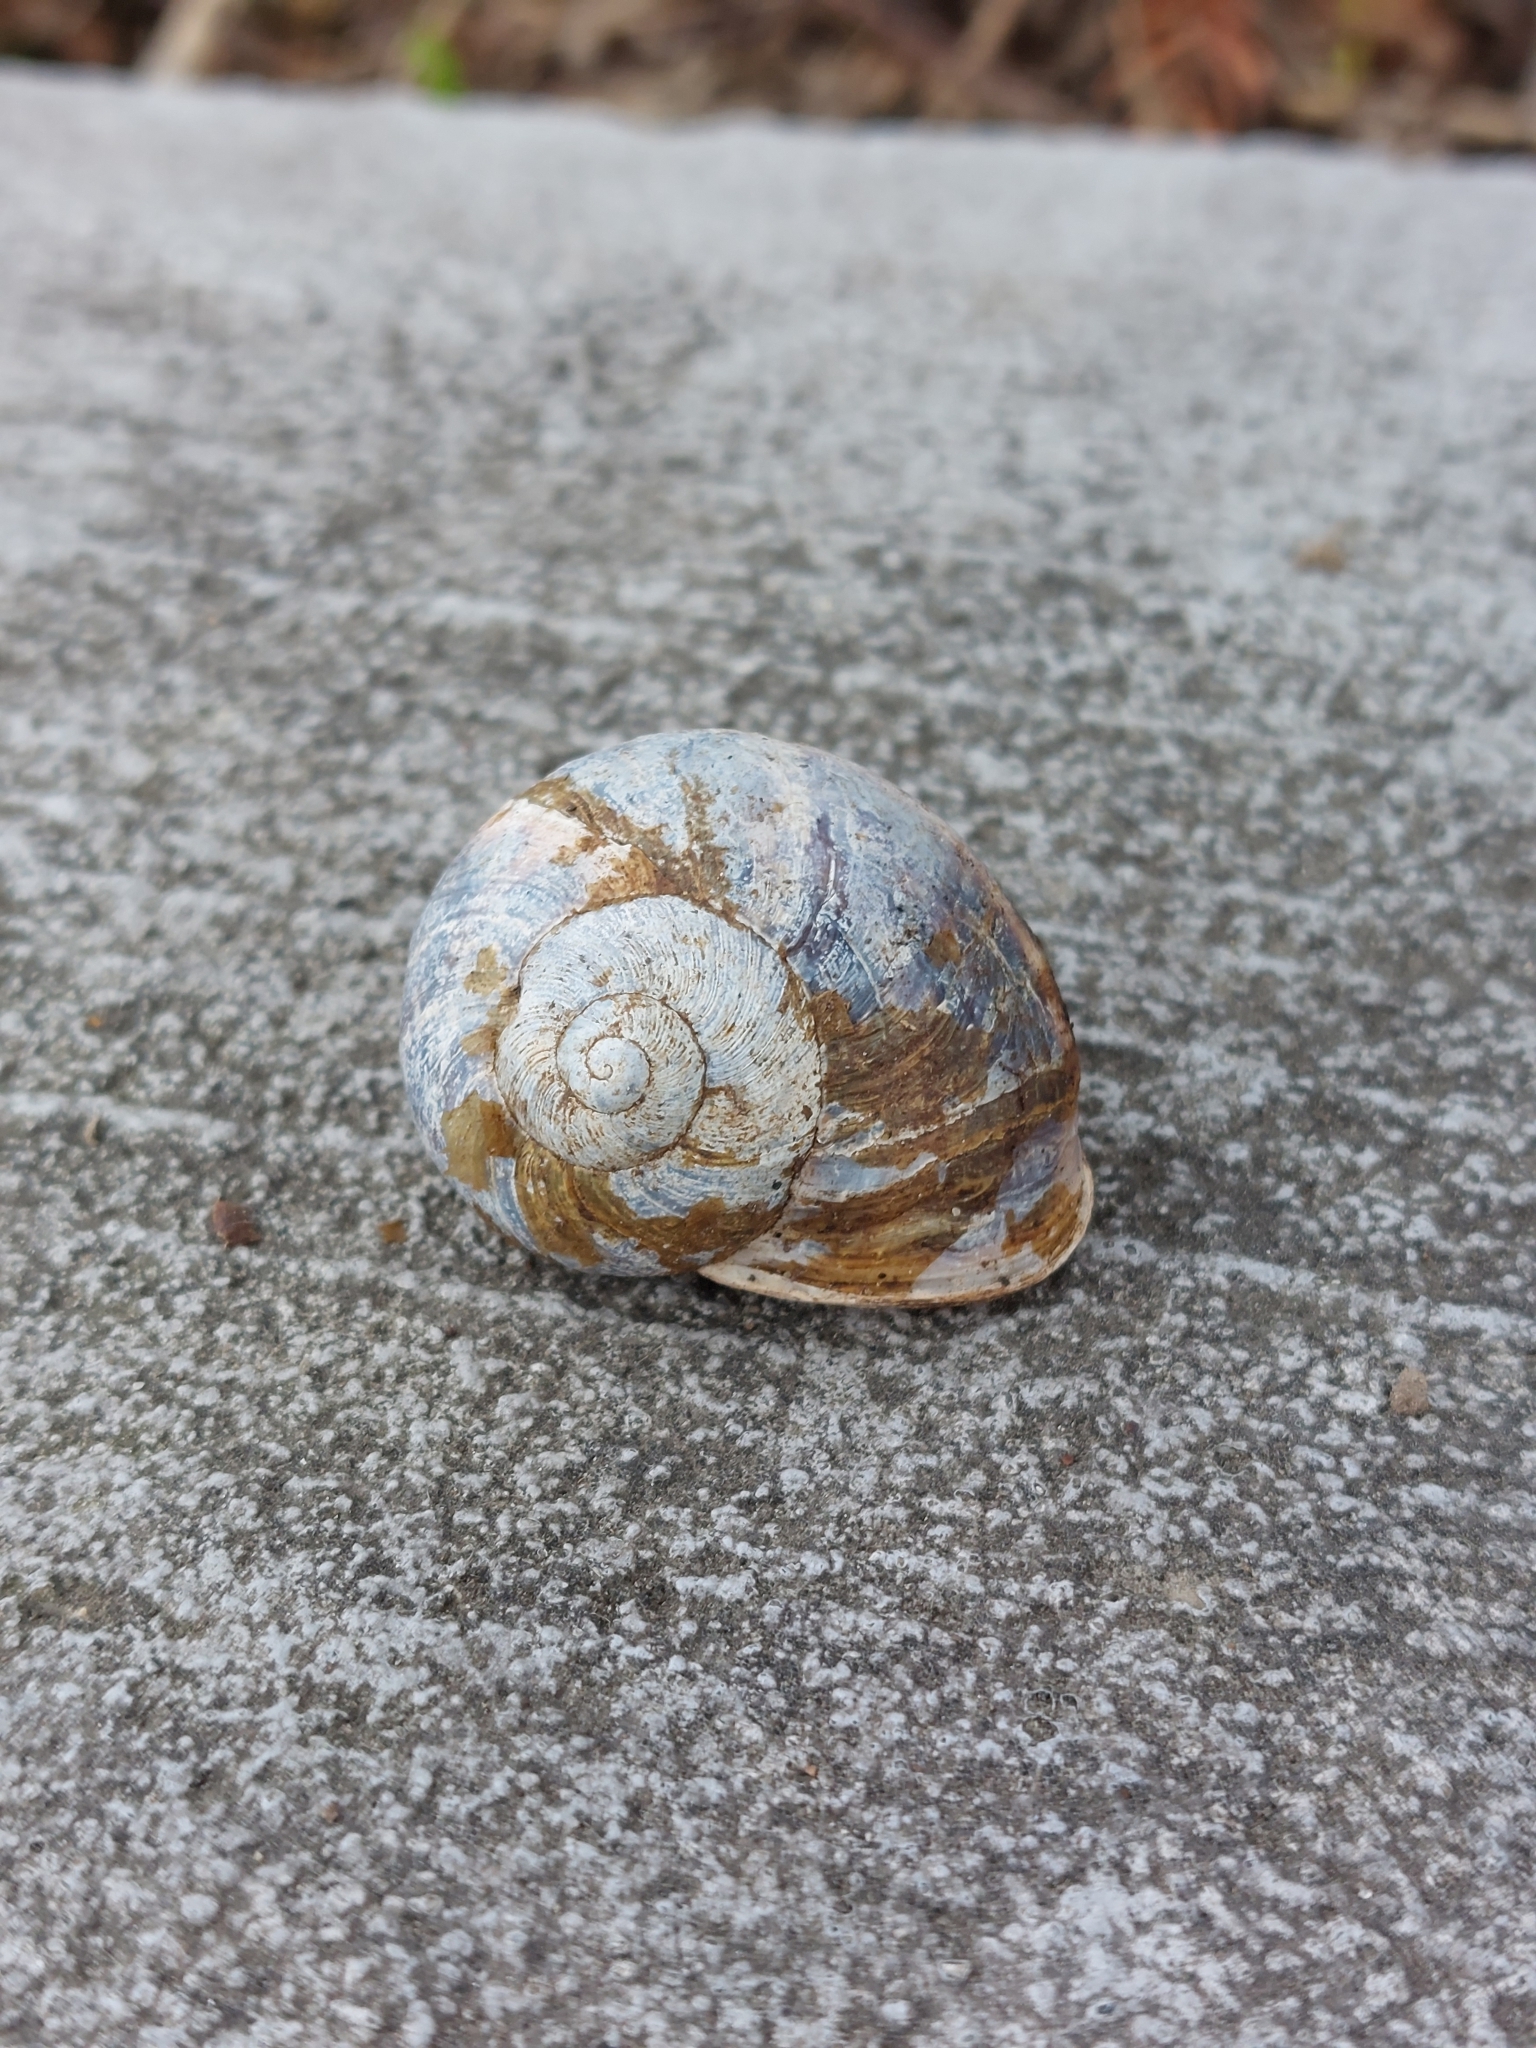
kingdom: Animalia
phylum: Mollusca
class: Gastropoda
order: Stylommatophora
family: Helicidae
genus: Cornu
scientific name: Cornu aspersum
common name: Brown garden snail
